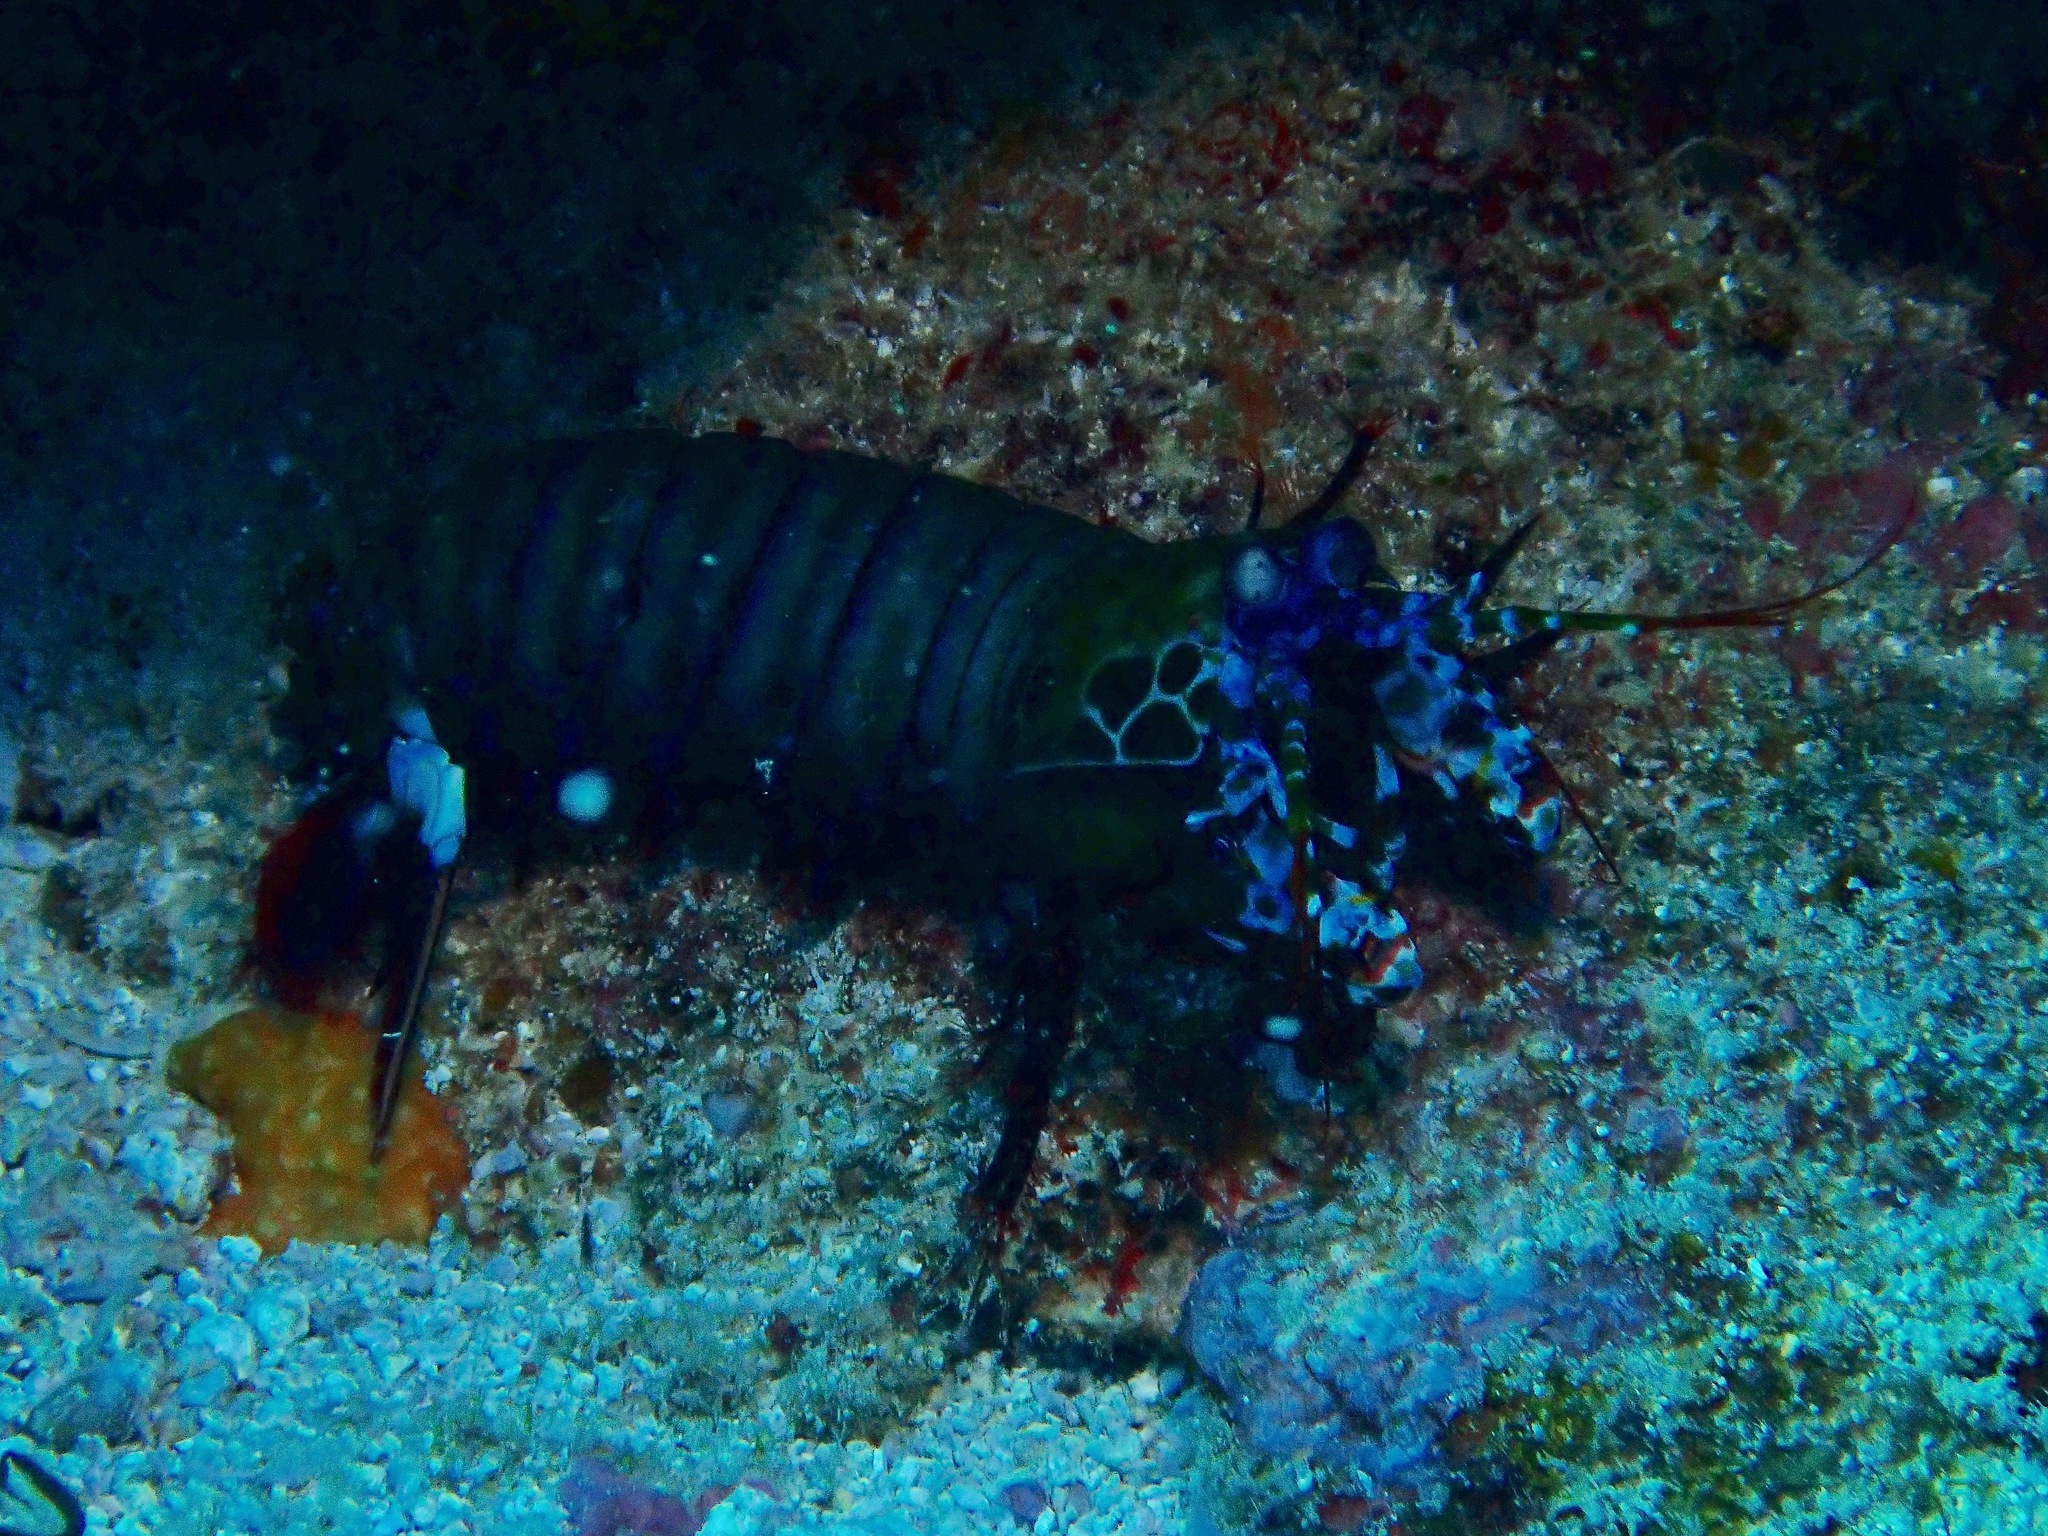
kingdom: Animalia
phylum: Arthropoda
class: Malacostraca
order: Stomatopoda
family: Odontodactylidae
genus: Odontodactylus
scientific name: Odontodactylus scyllarus
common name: Peacock mantis shrimp
